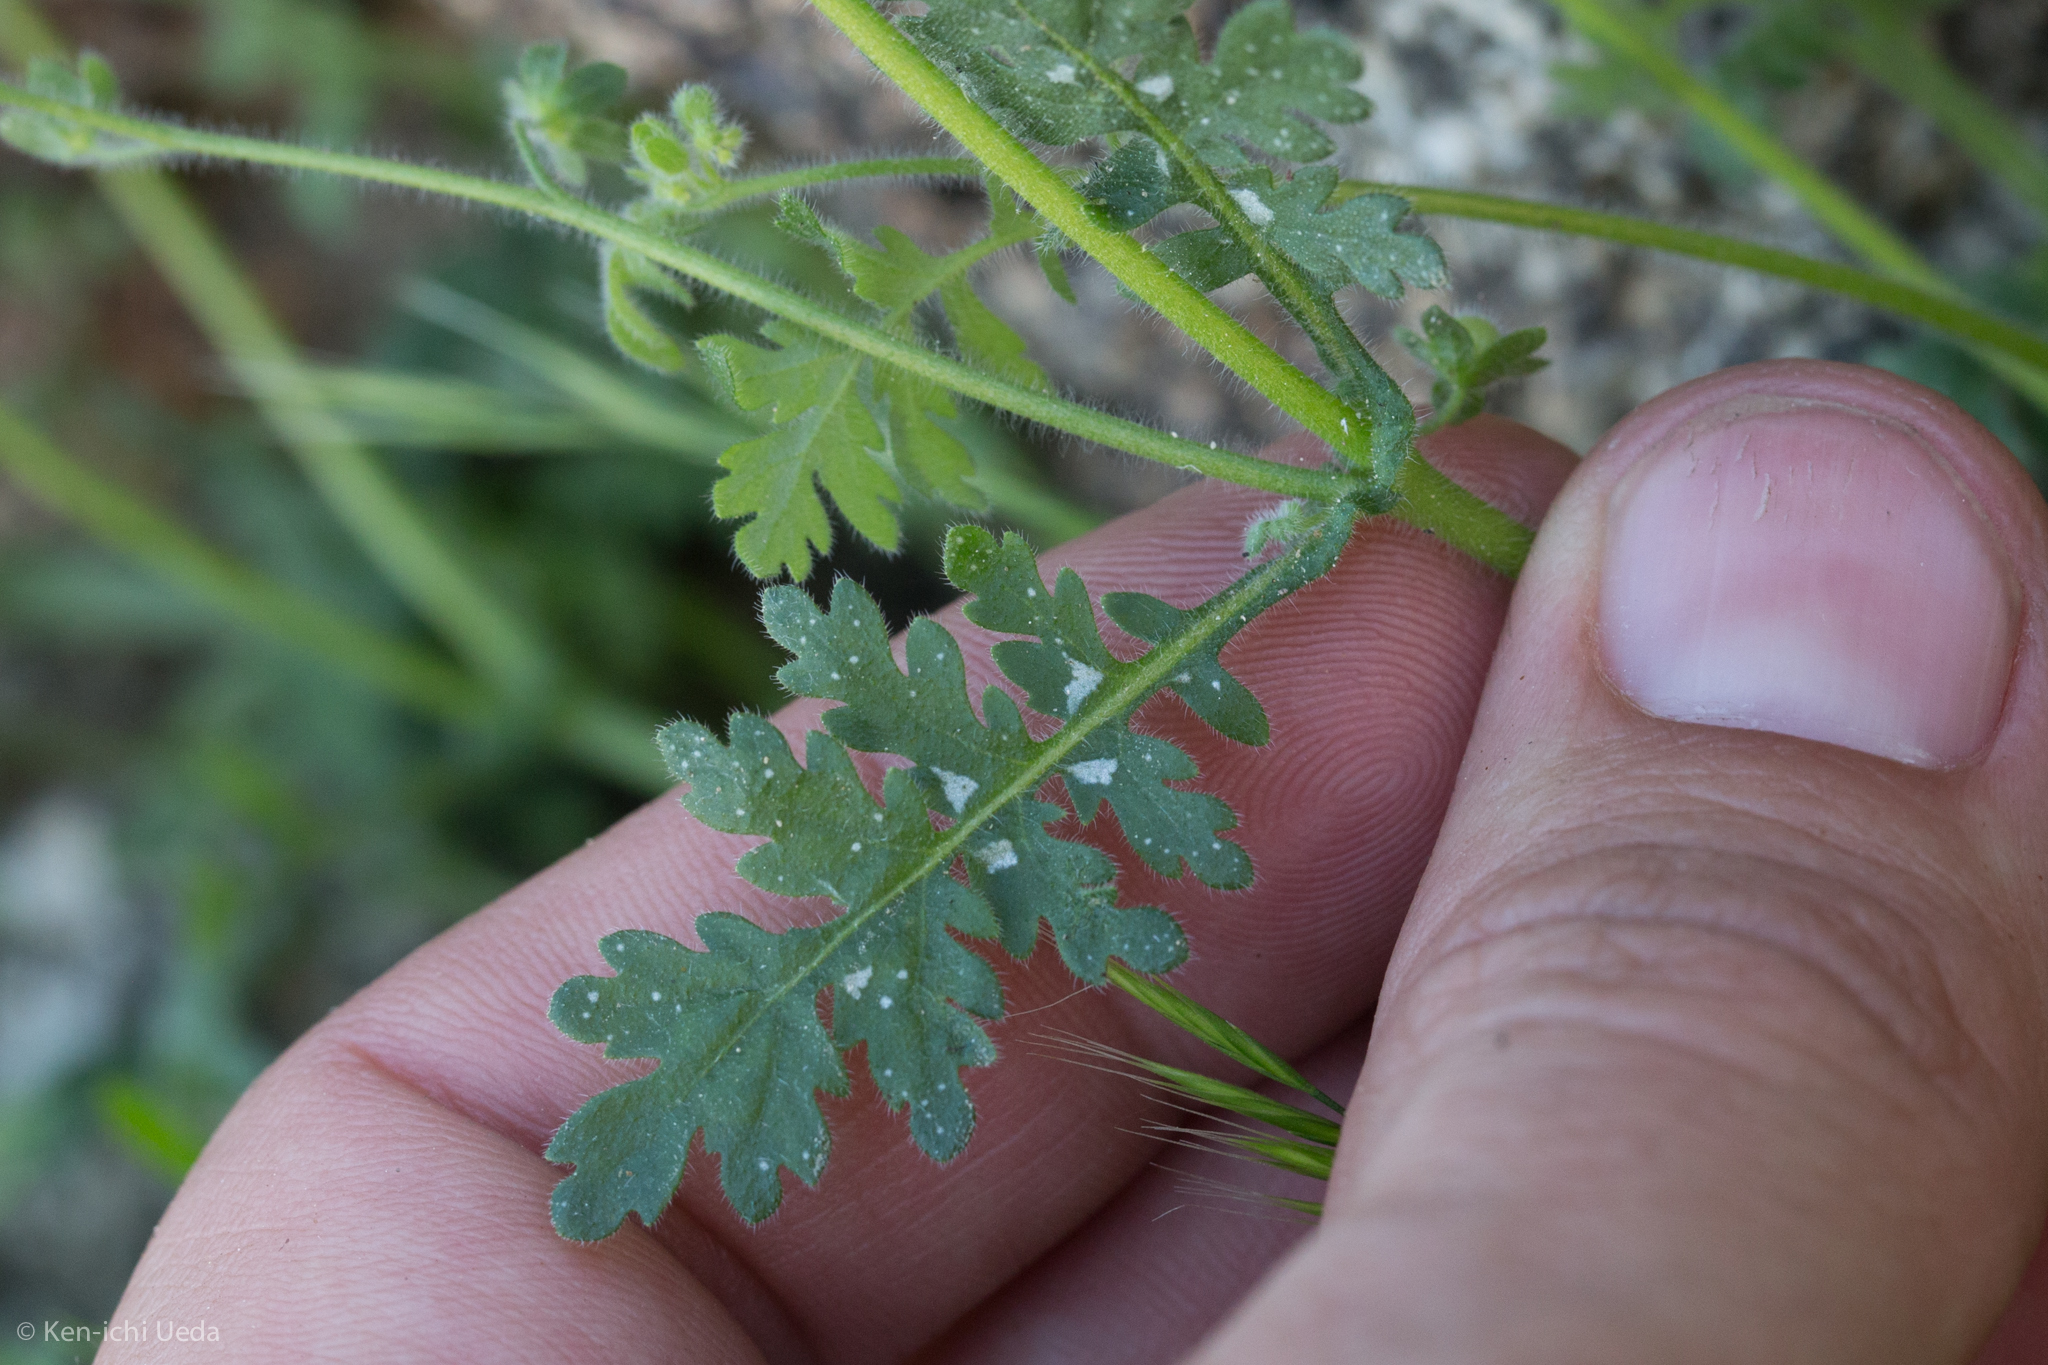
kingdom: Plantae
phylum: Tracheophyta
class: Magnoliopsida
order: Boraginales
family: Hydrophyllaceae
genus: Eucrypta
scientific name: Eucrypta chrysanthemifolia
